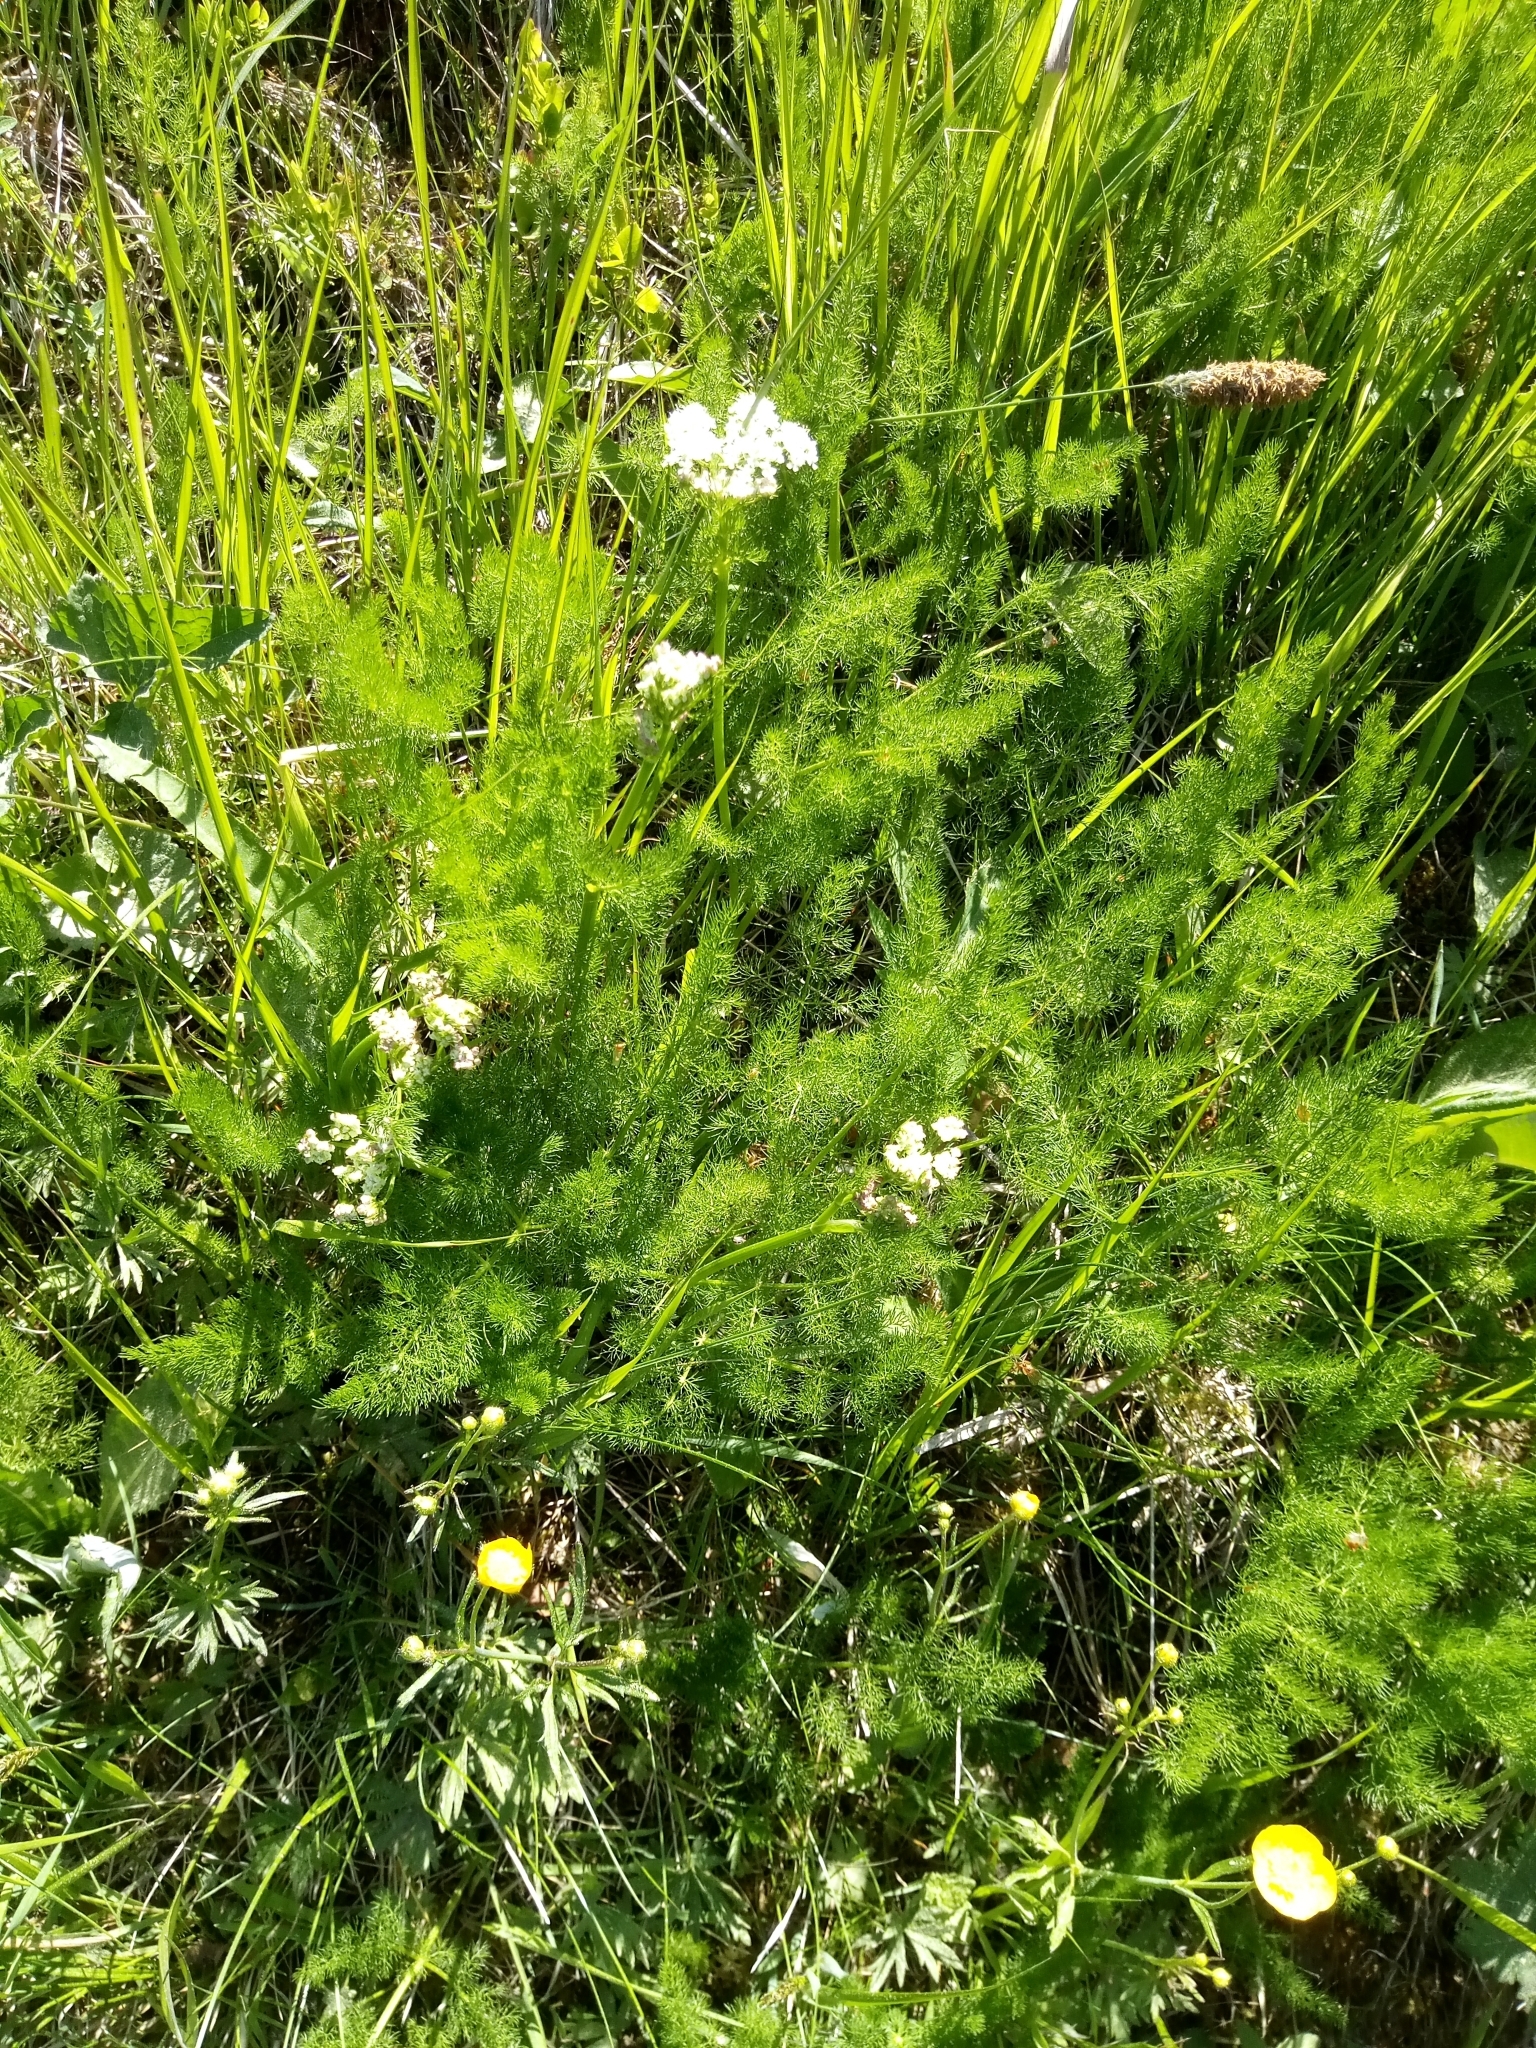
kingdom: Plantae
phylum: Tracheophyta
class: Magnoliopsida
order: Apiales
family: Apiaceae
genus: Meum
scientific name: Meum athamanticum
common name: Spignel
